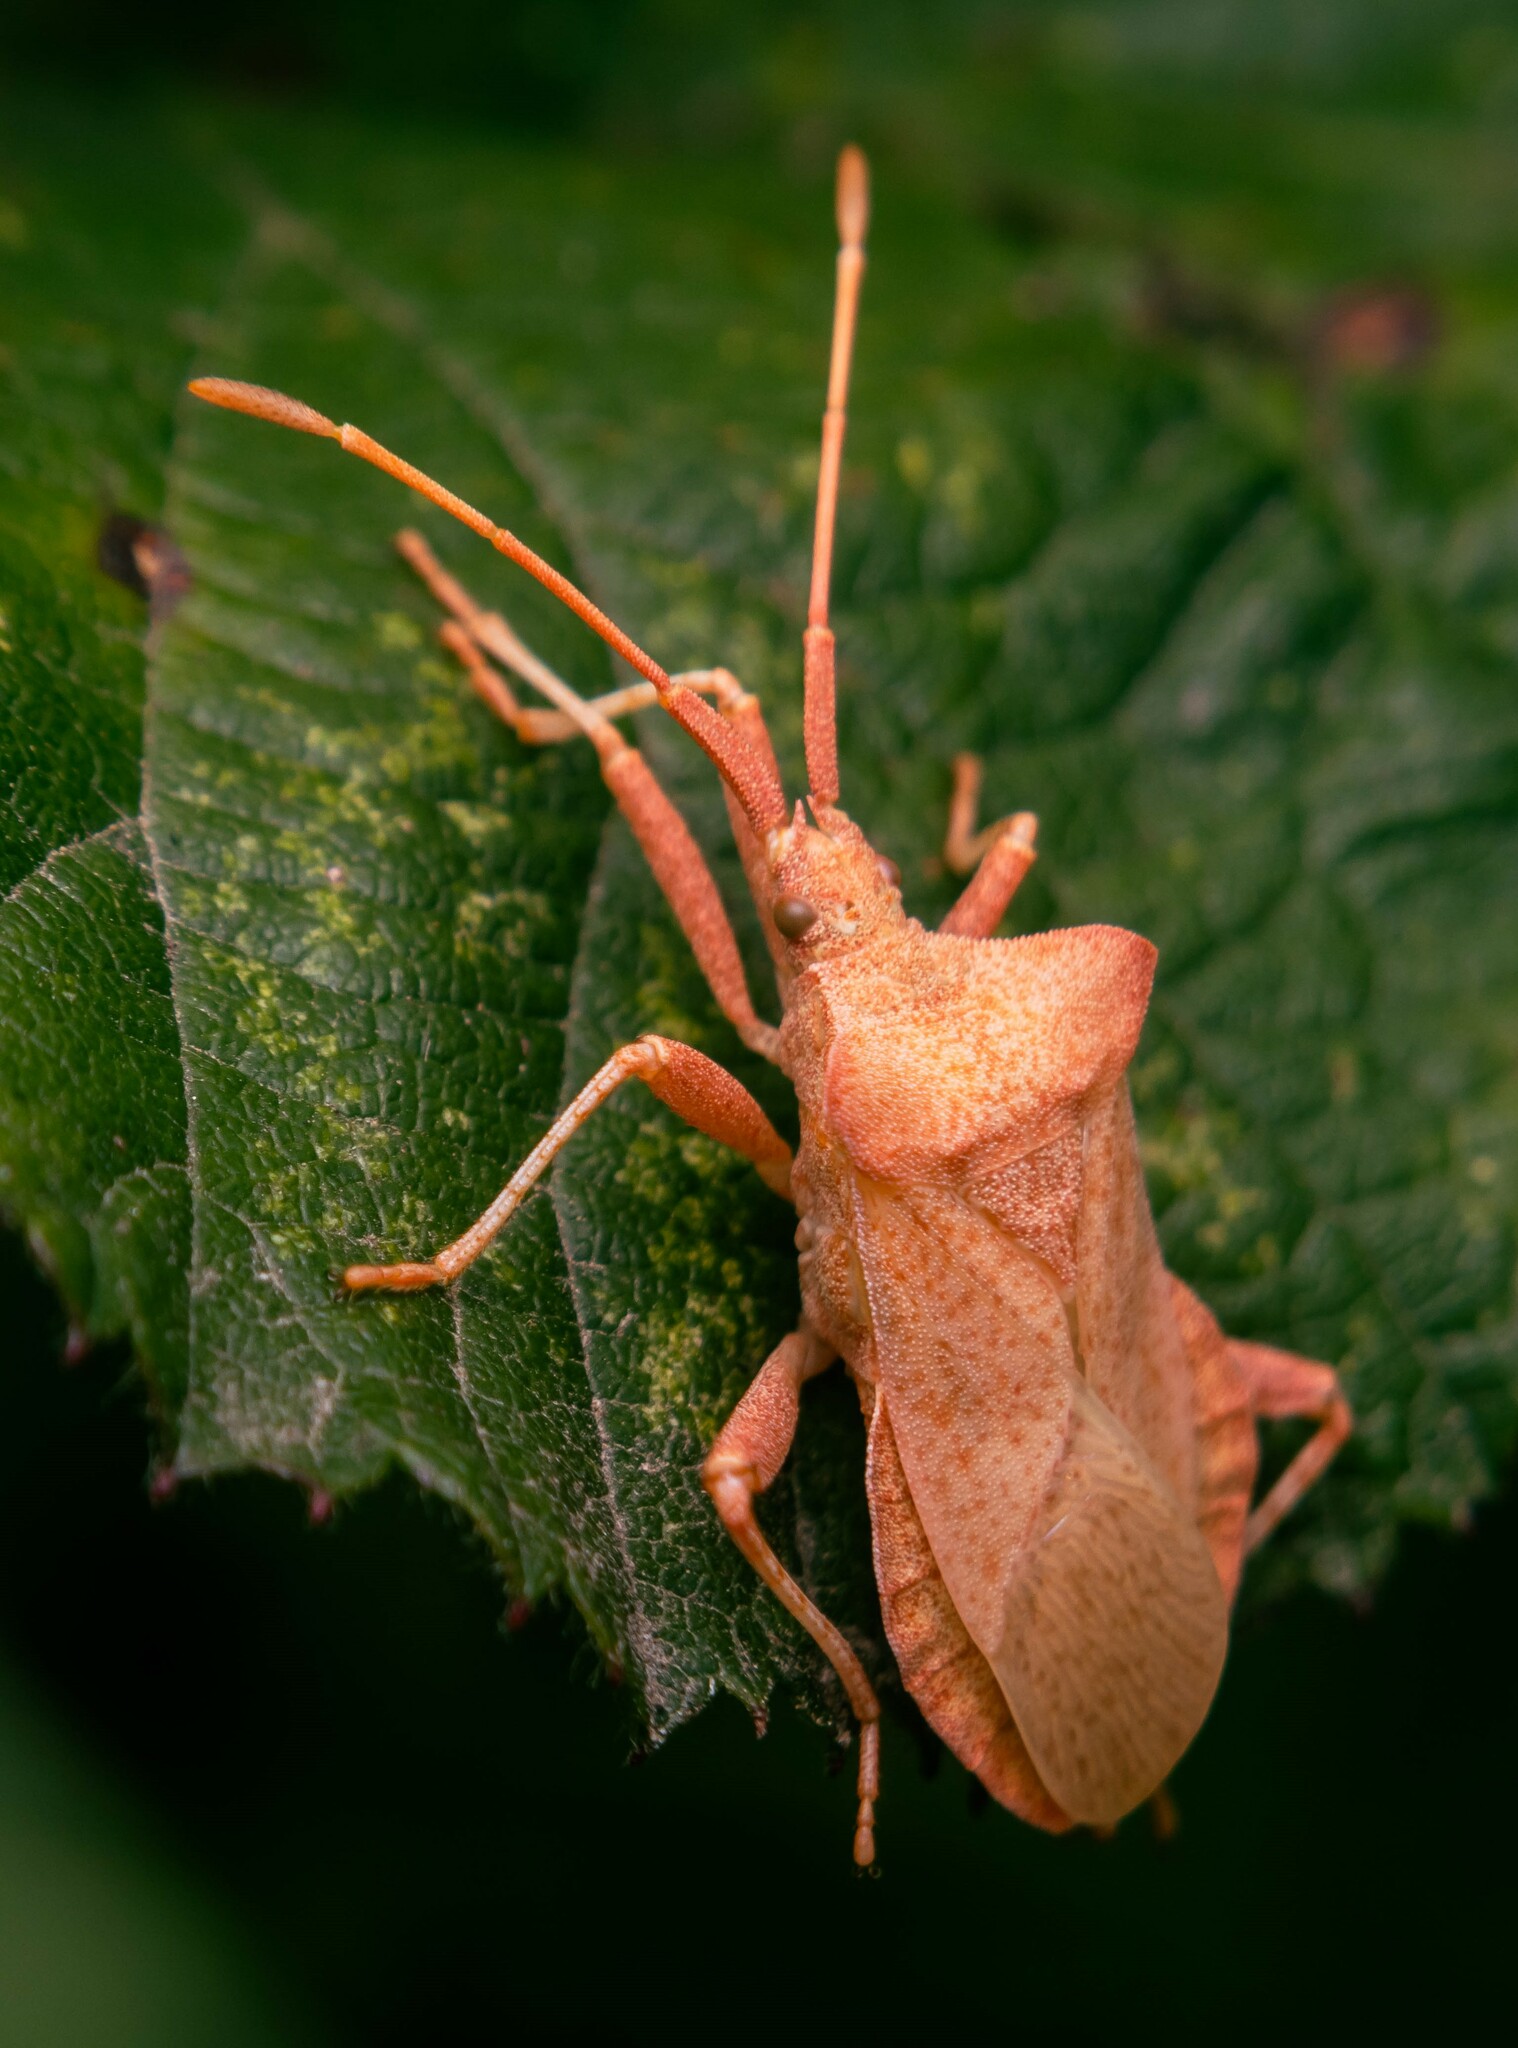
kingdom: Animalia
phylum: Arthropoda
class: Insecta
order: Hemiptera
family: Coreidae
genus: Coreus
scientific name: Coreus marginatus
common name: Dock bug
